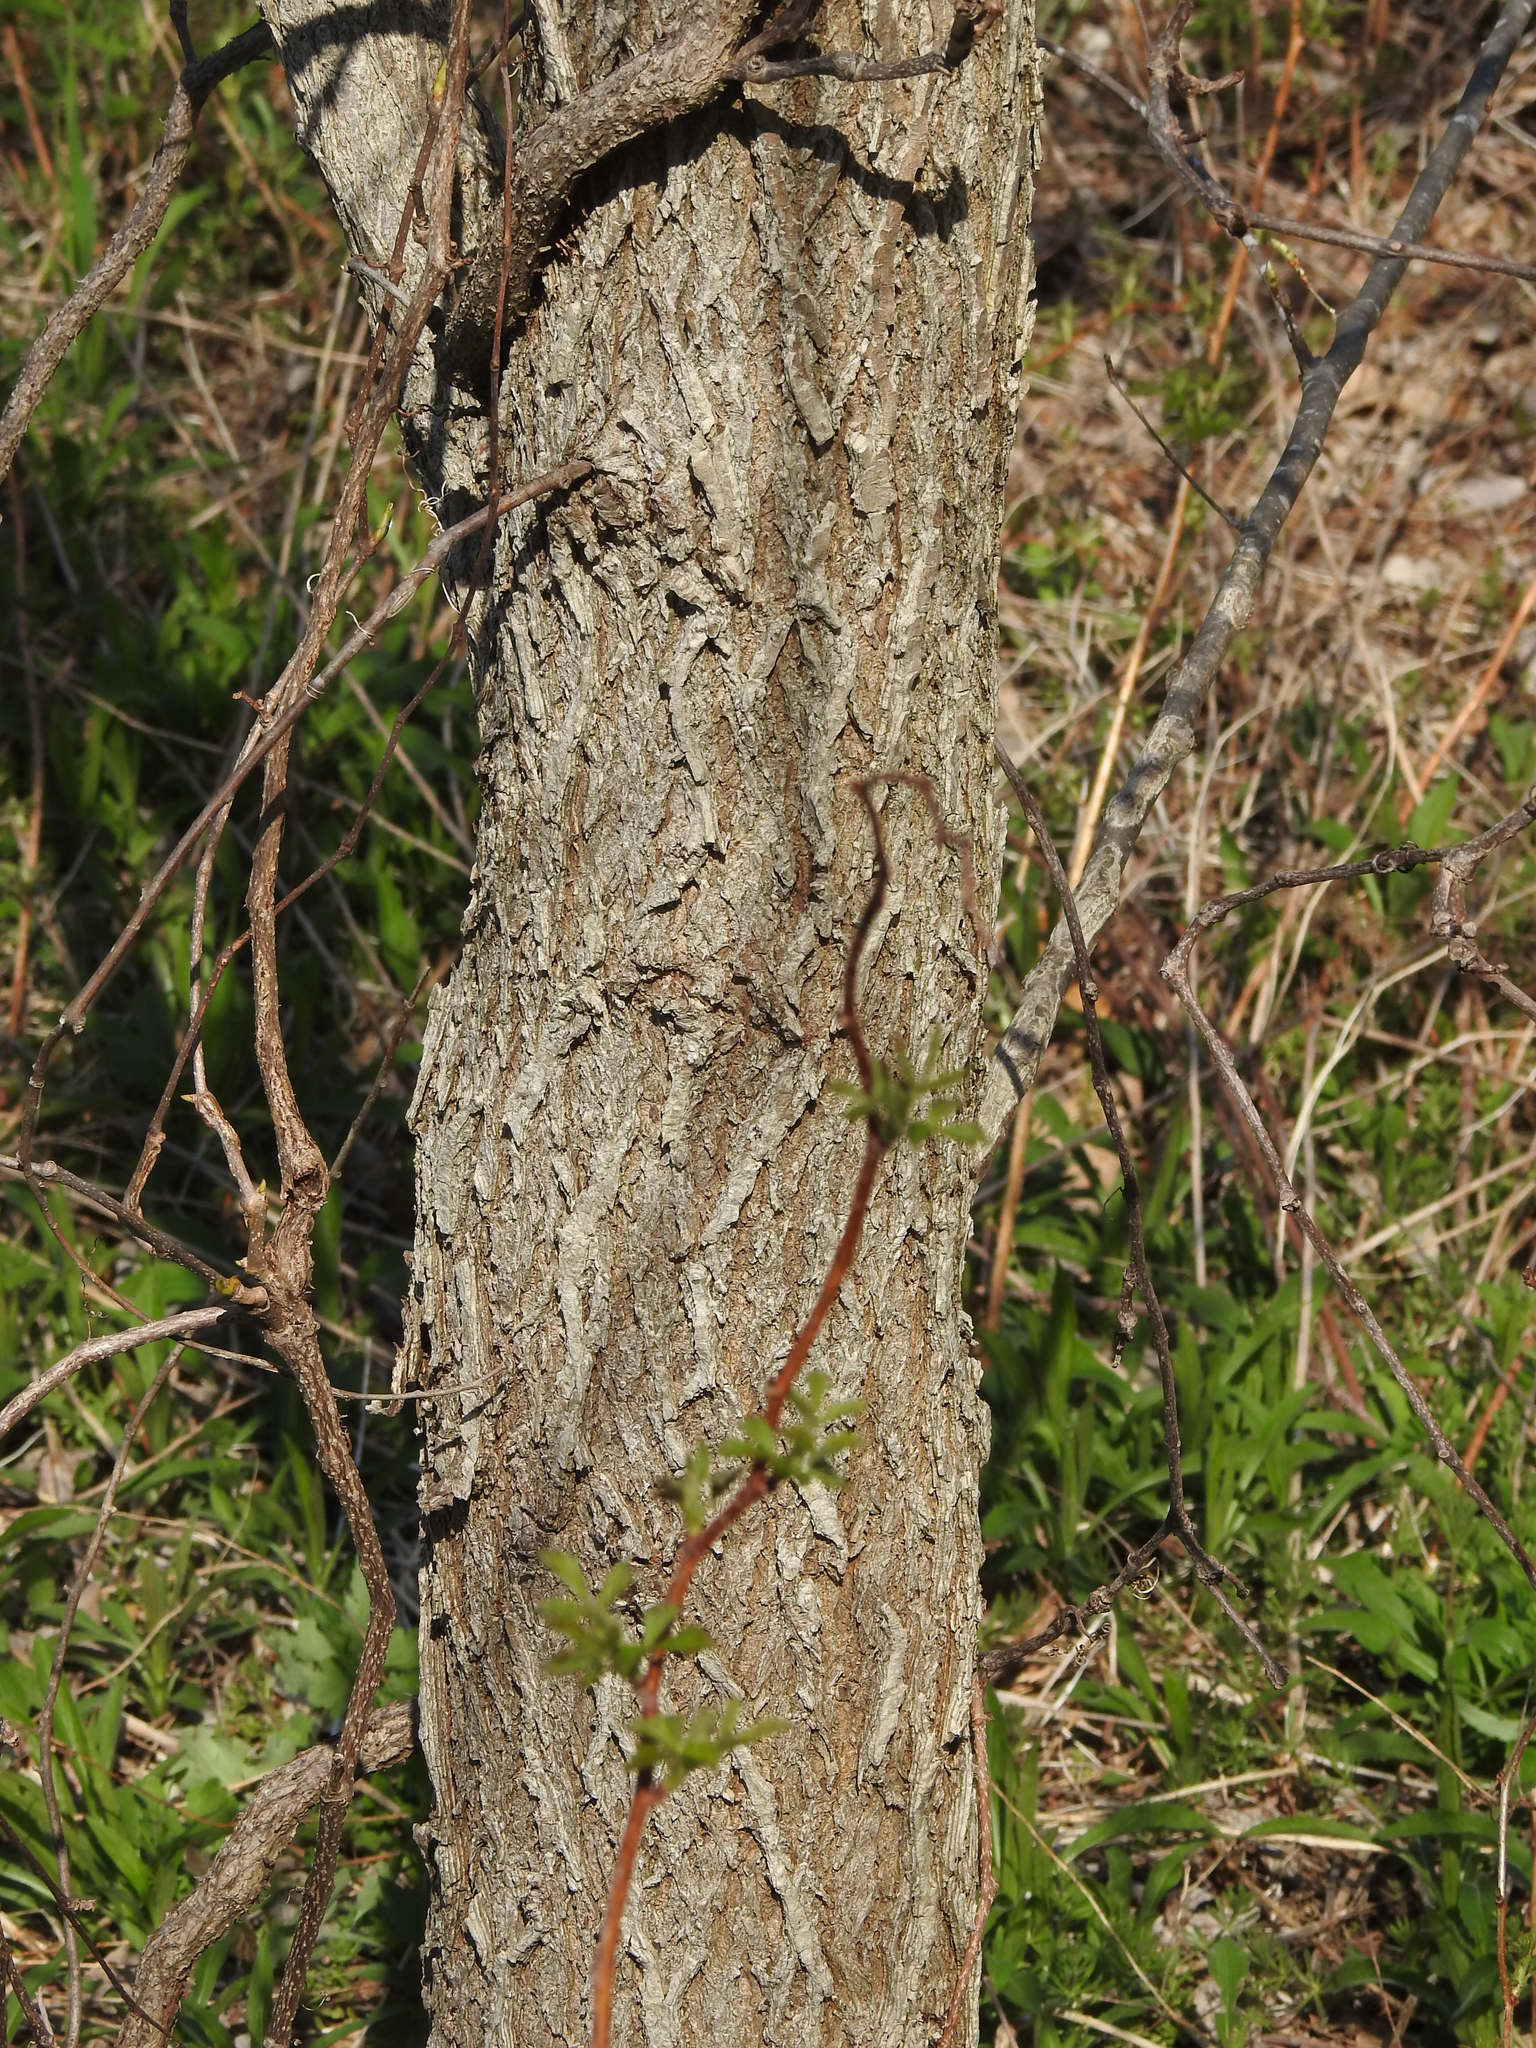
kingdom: Plantae
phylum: Tracheophyta
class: Magnoliopsida
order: Rosales
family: Ulmaceae
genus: Ulmus
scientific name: Ulmus americana
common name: American elm
